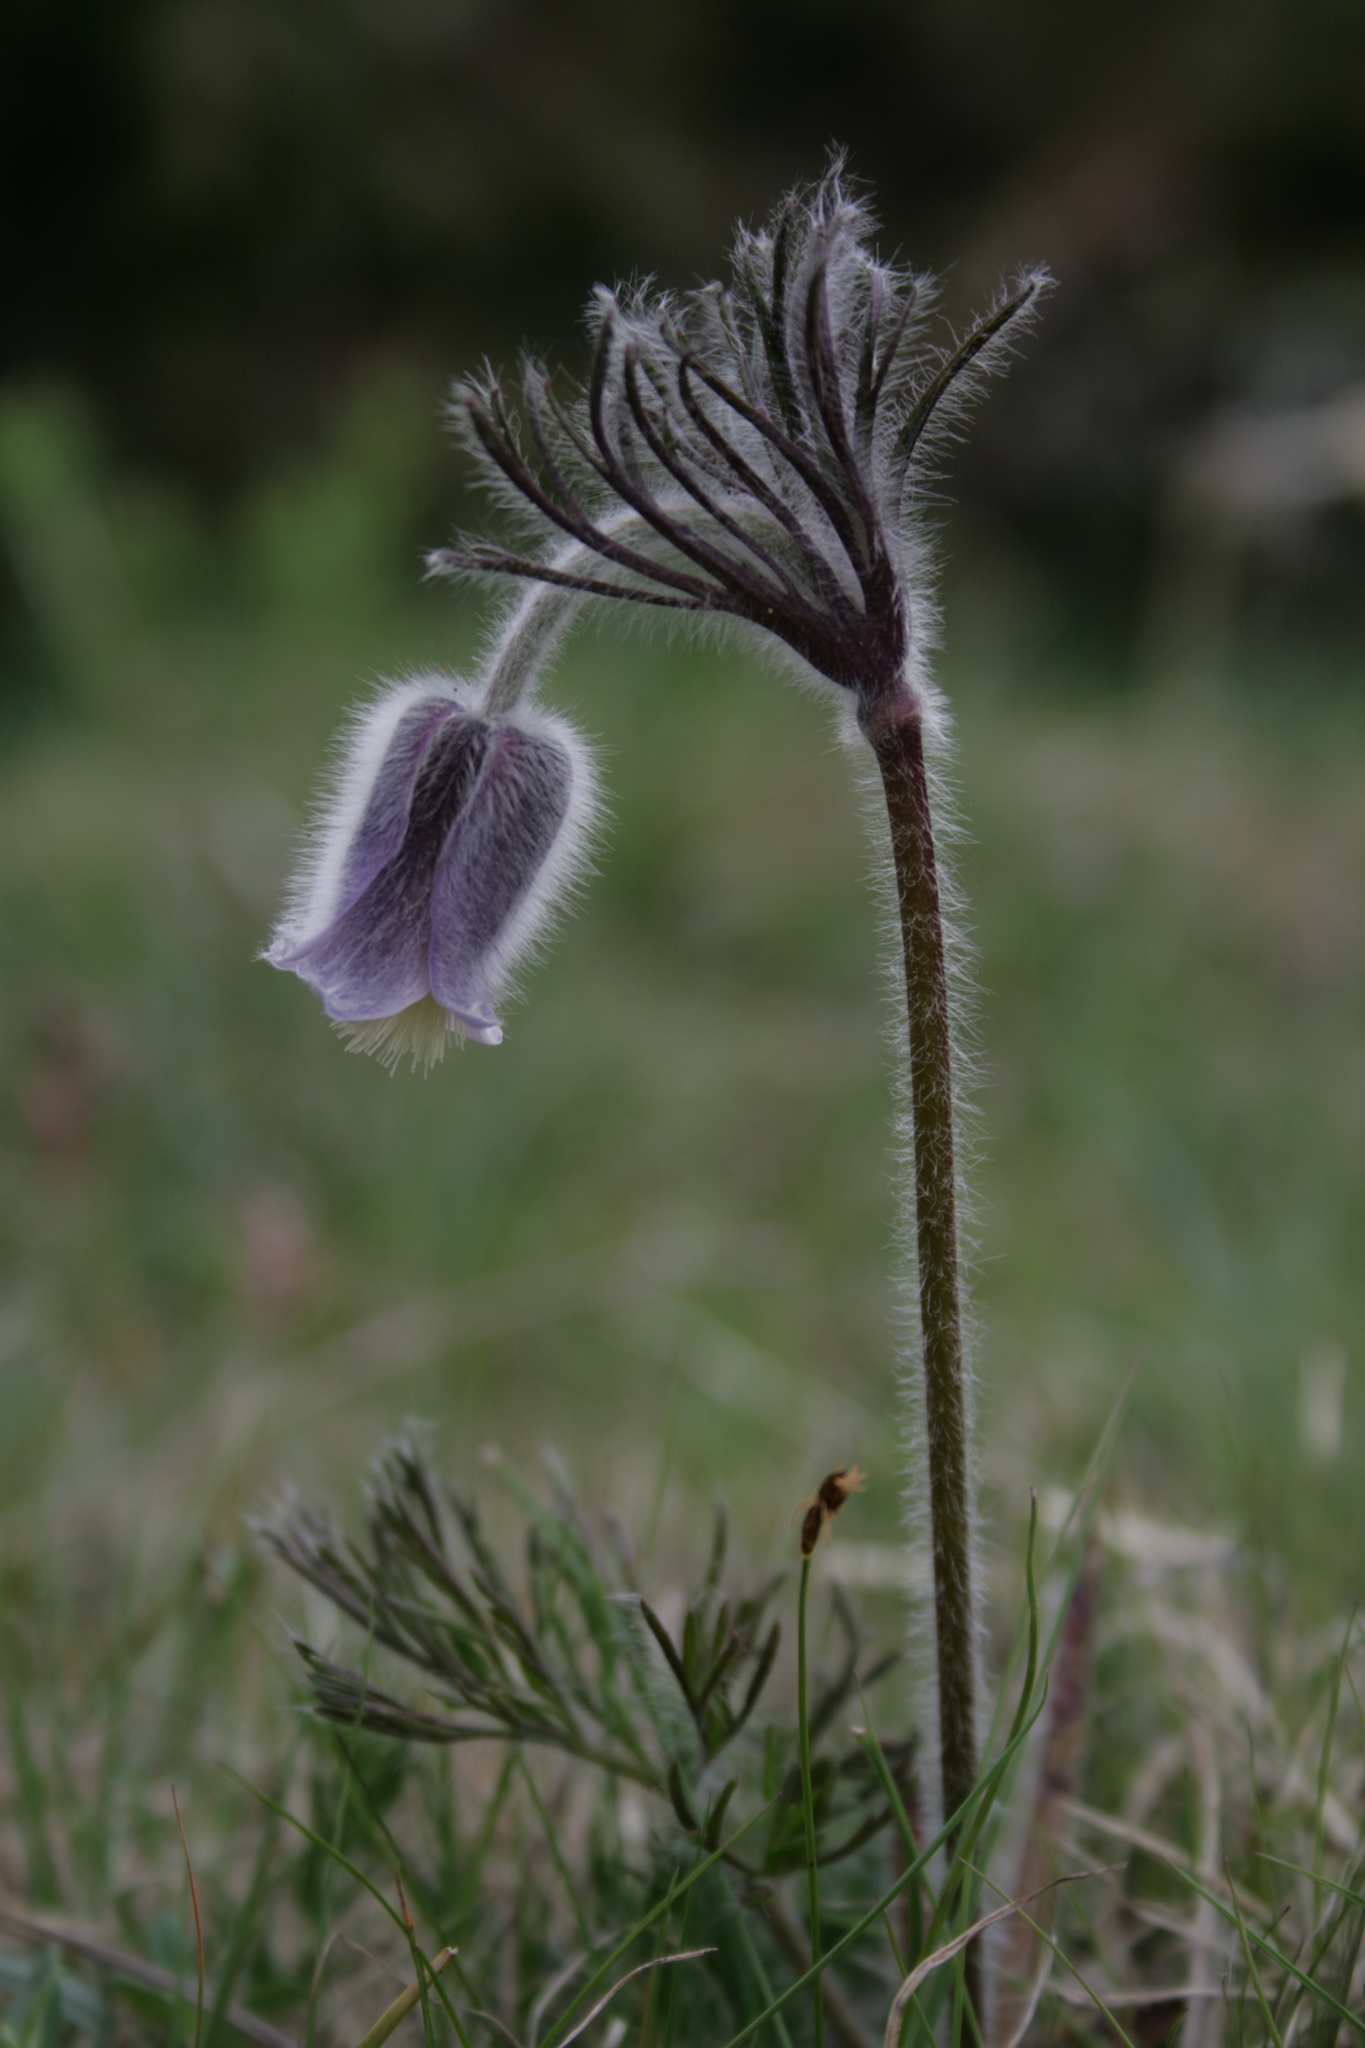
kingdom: Plantae
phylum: Tracheophyta
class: Magnoliopsida
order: Ranunculales
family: Ranunculaceae
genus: Pulsatilla
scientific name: Pulsatilla pratensis
